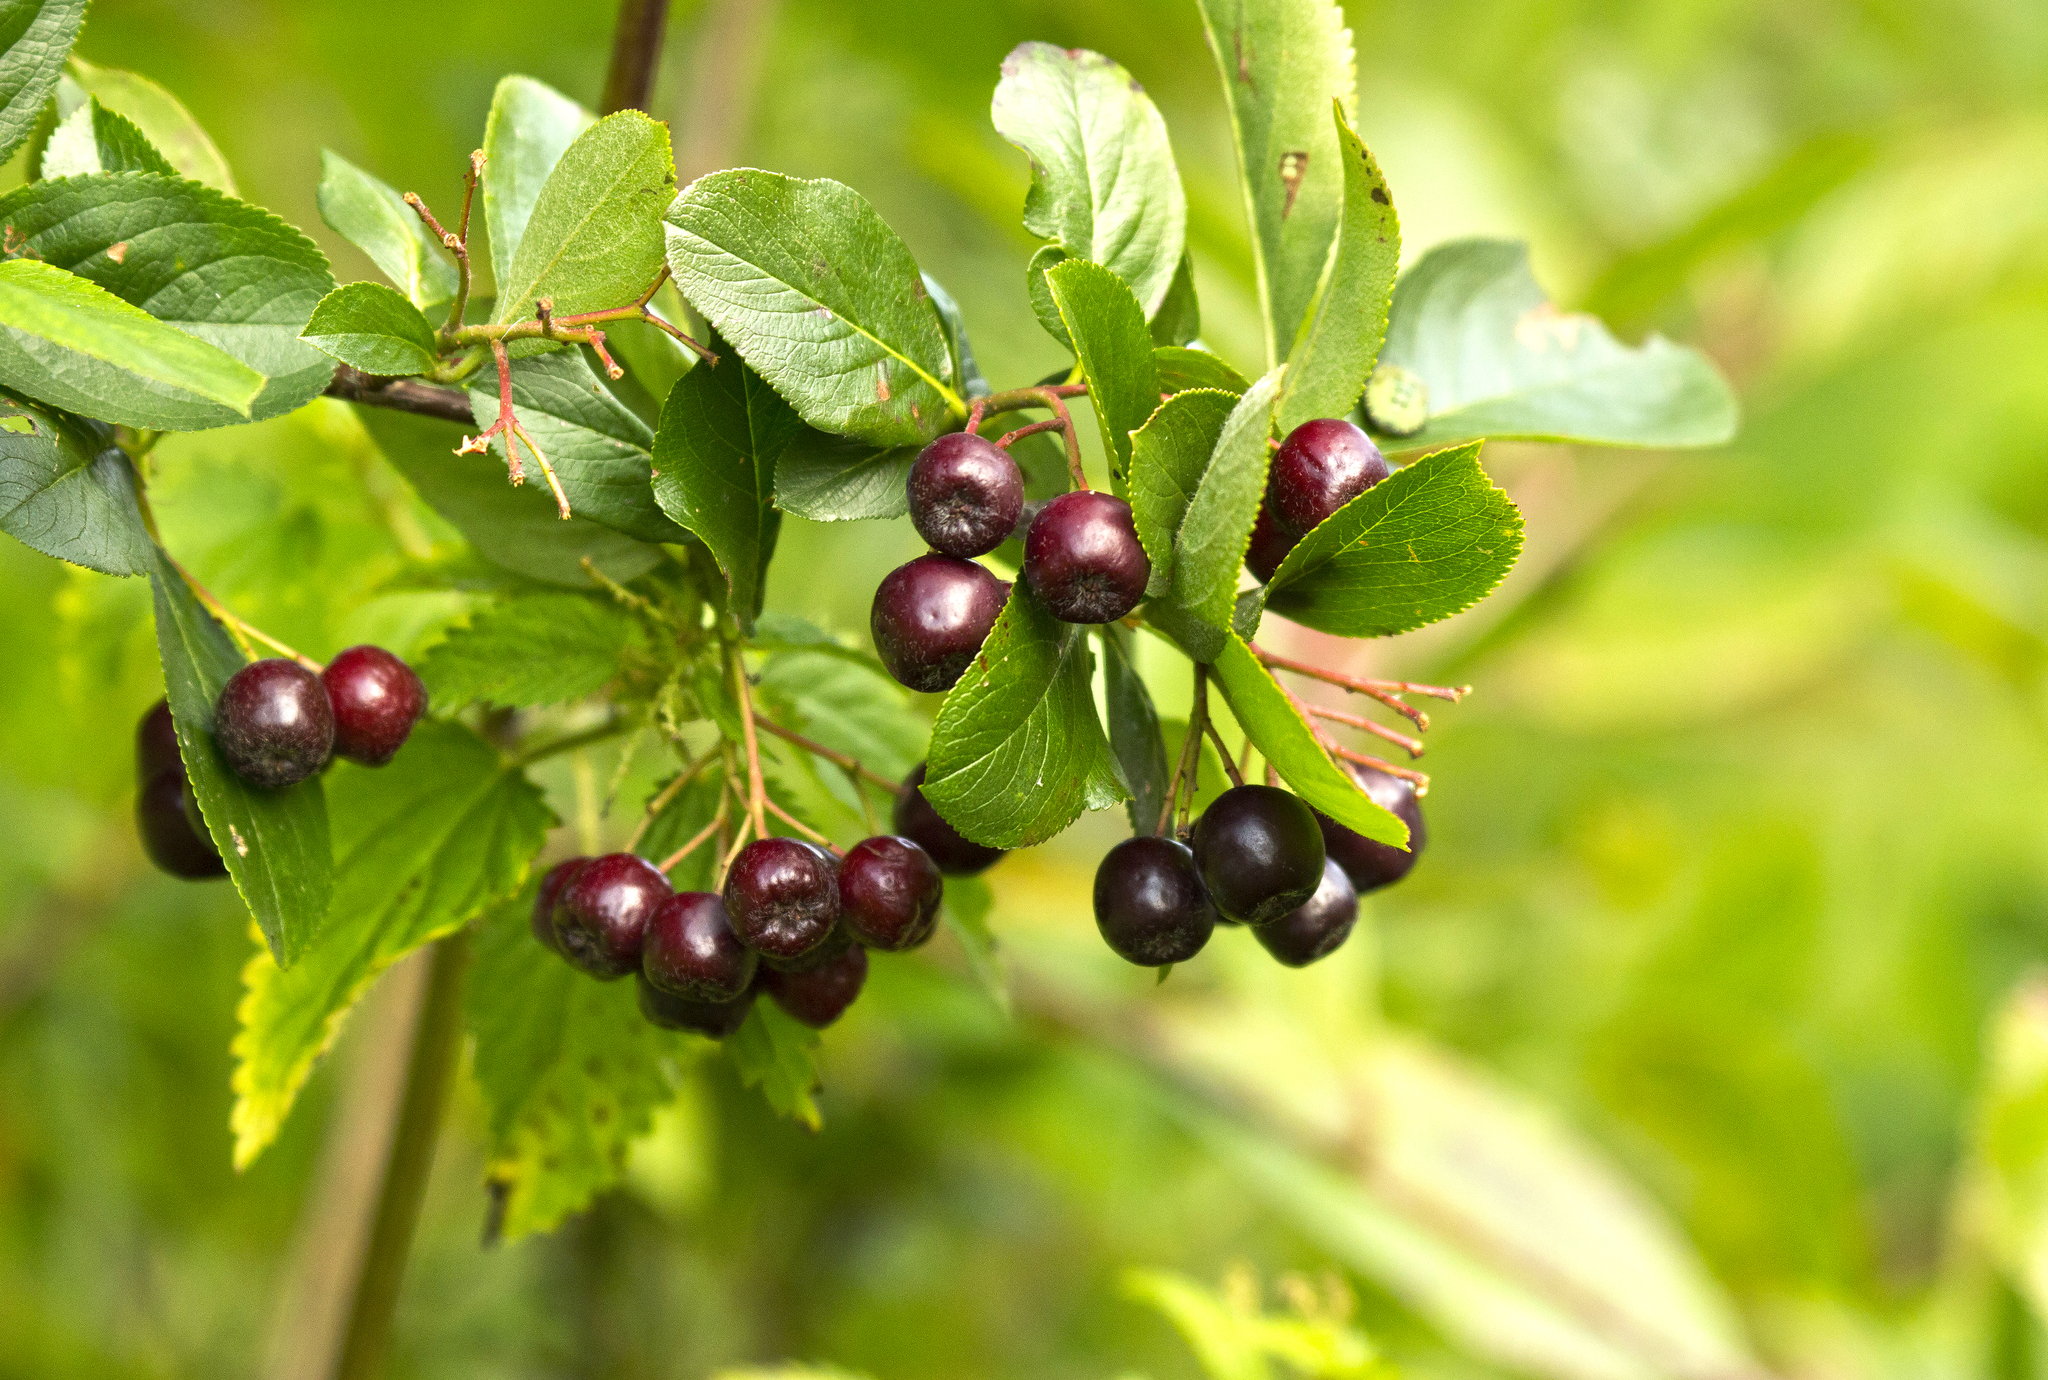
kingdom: Plantae
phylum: Tracheophyta
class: Magnoliopsida
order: Rosales
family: Rosaceae
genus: Sorbaronia
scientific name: Sorbaronia arsenii
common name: Arsène's mountain-ash
